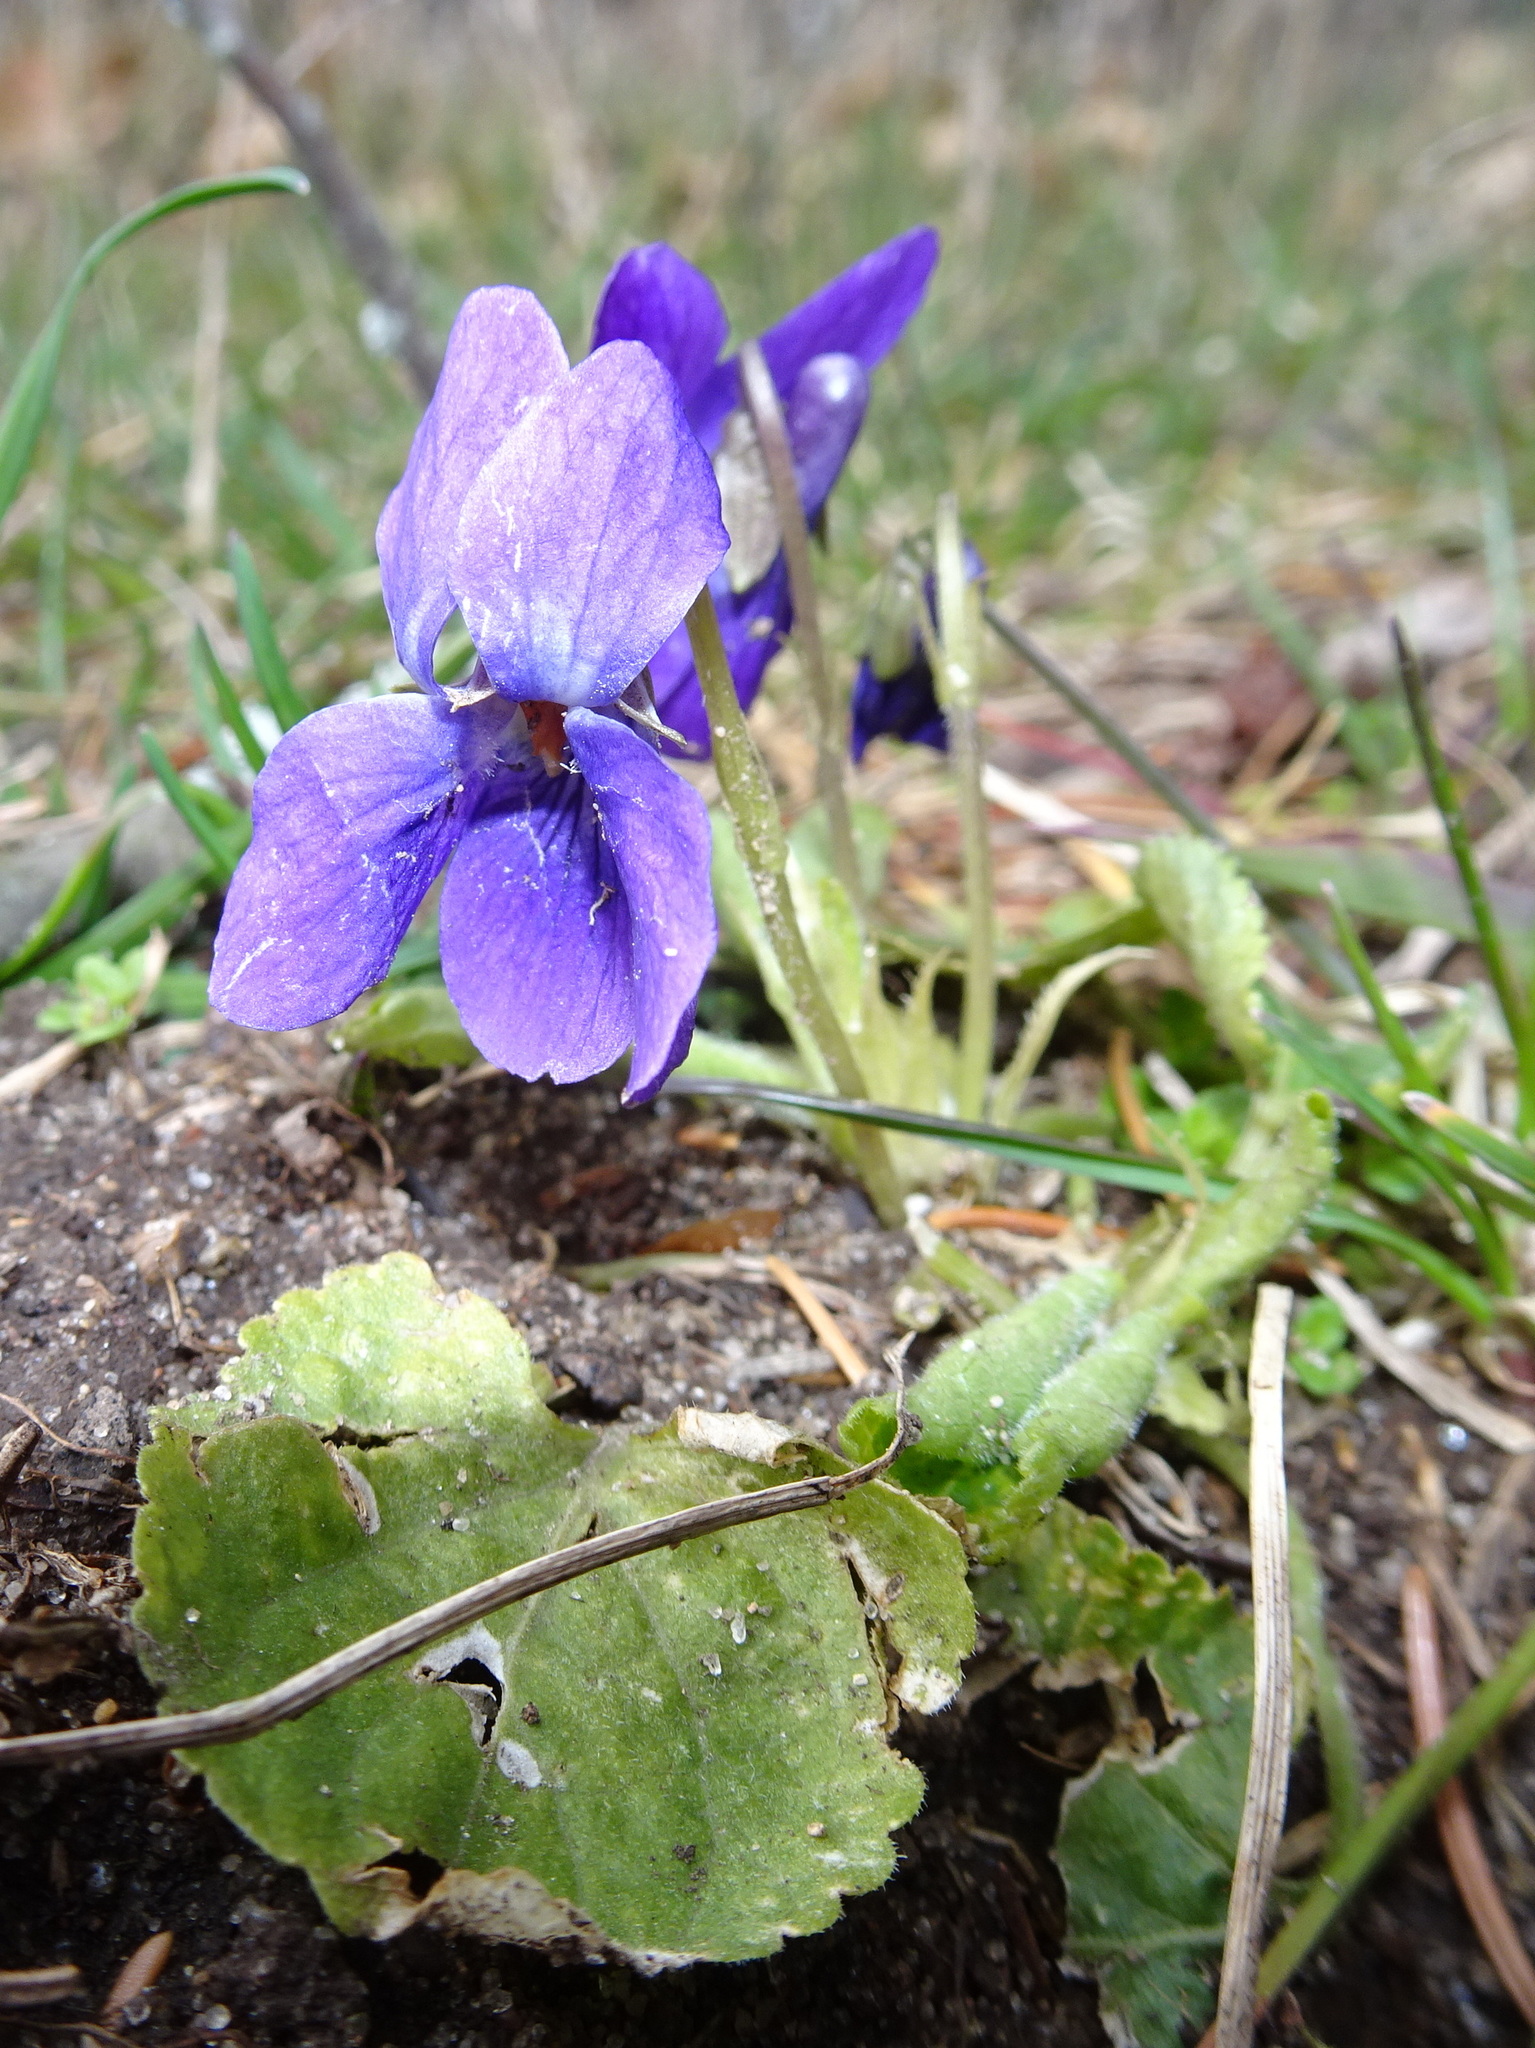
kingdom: Plantae
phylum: Tracheophyta
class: Magnoliopsida
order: Malpighiales
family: Violaceae
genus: Viola
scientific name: Viola odorata
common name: Sweet violet
